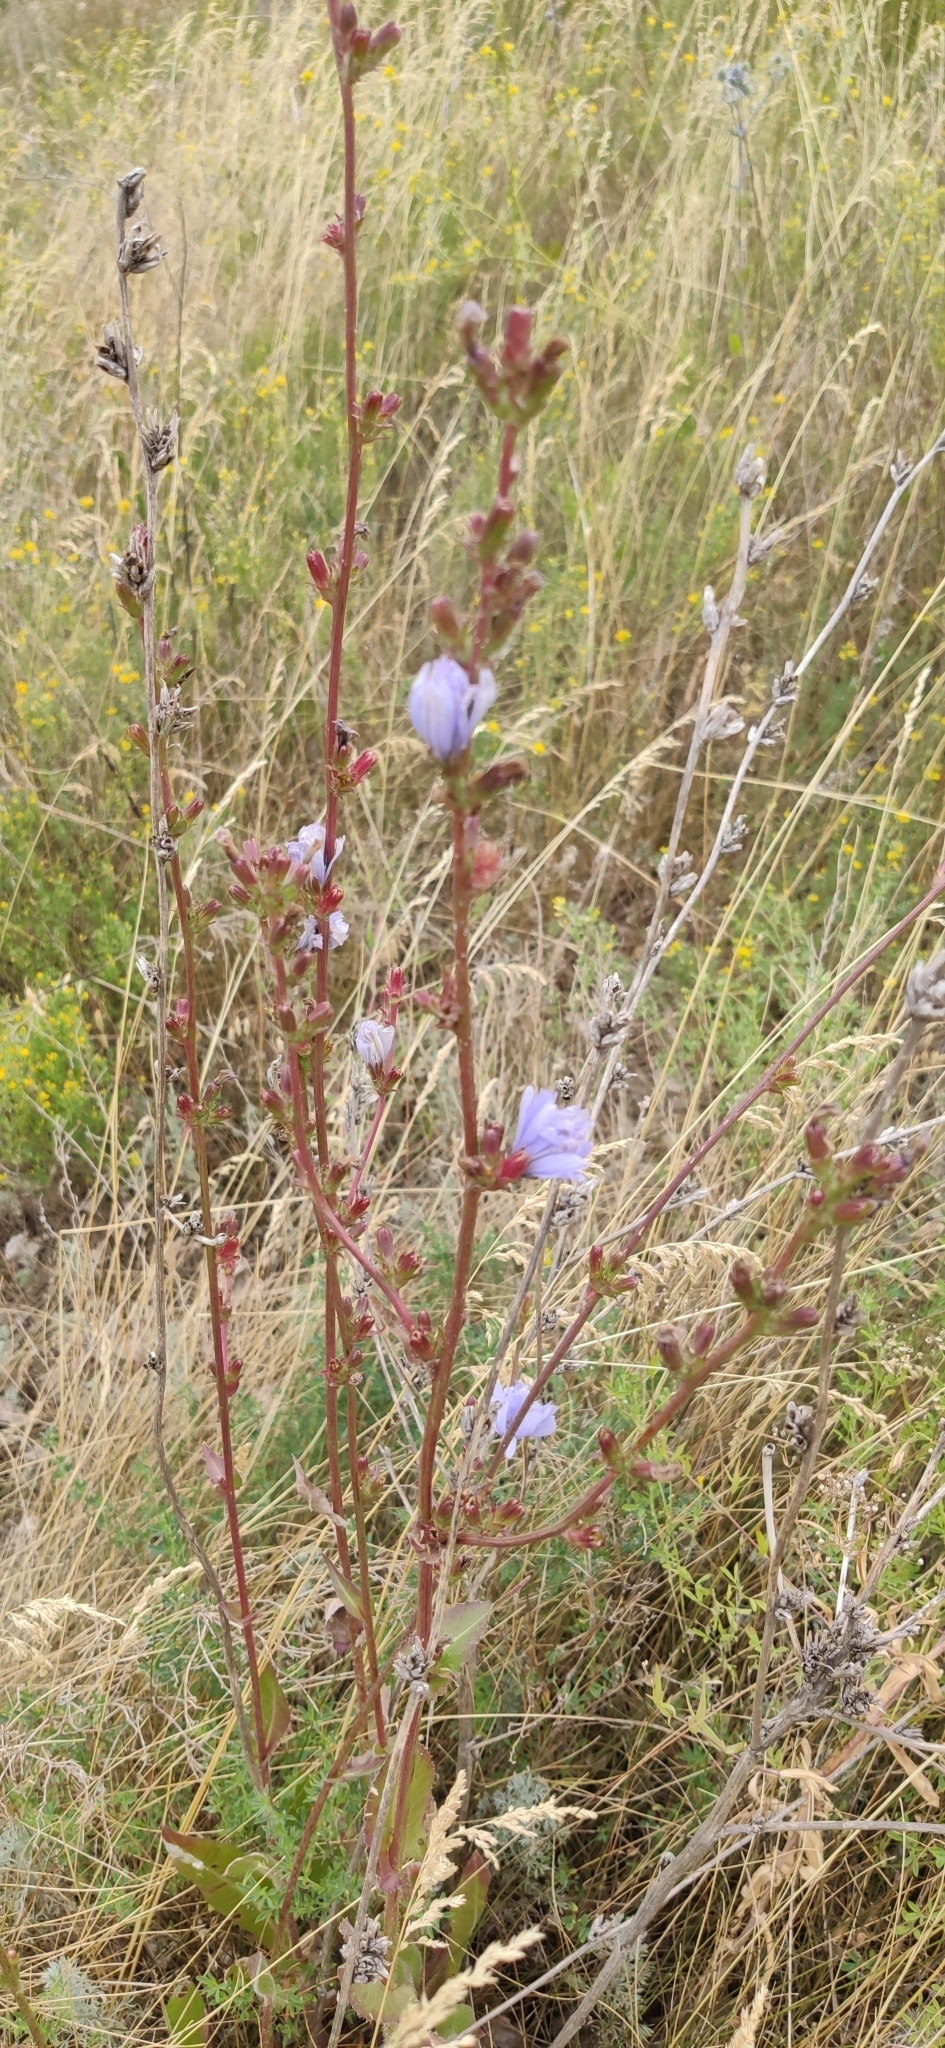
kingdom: Plantae
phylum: Tracheophyta
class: Magnoliopsida
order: Asterales
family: Asteraceae
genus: Cichorium
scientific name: Cichorium intybus
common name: Chicory
